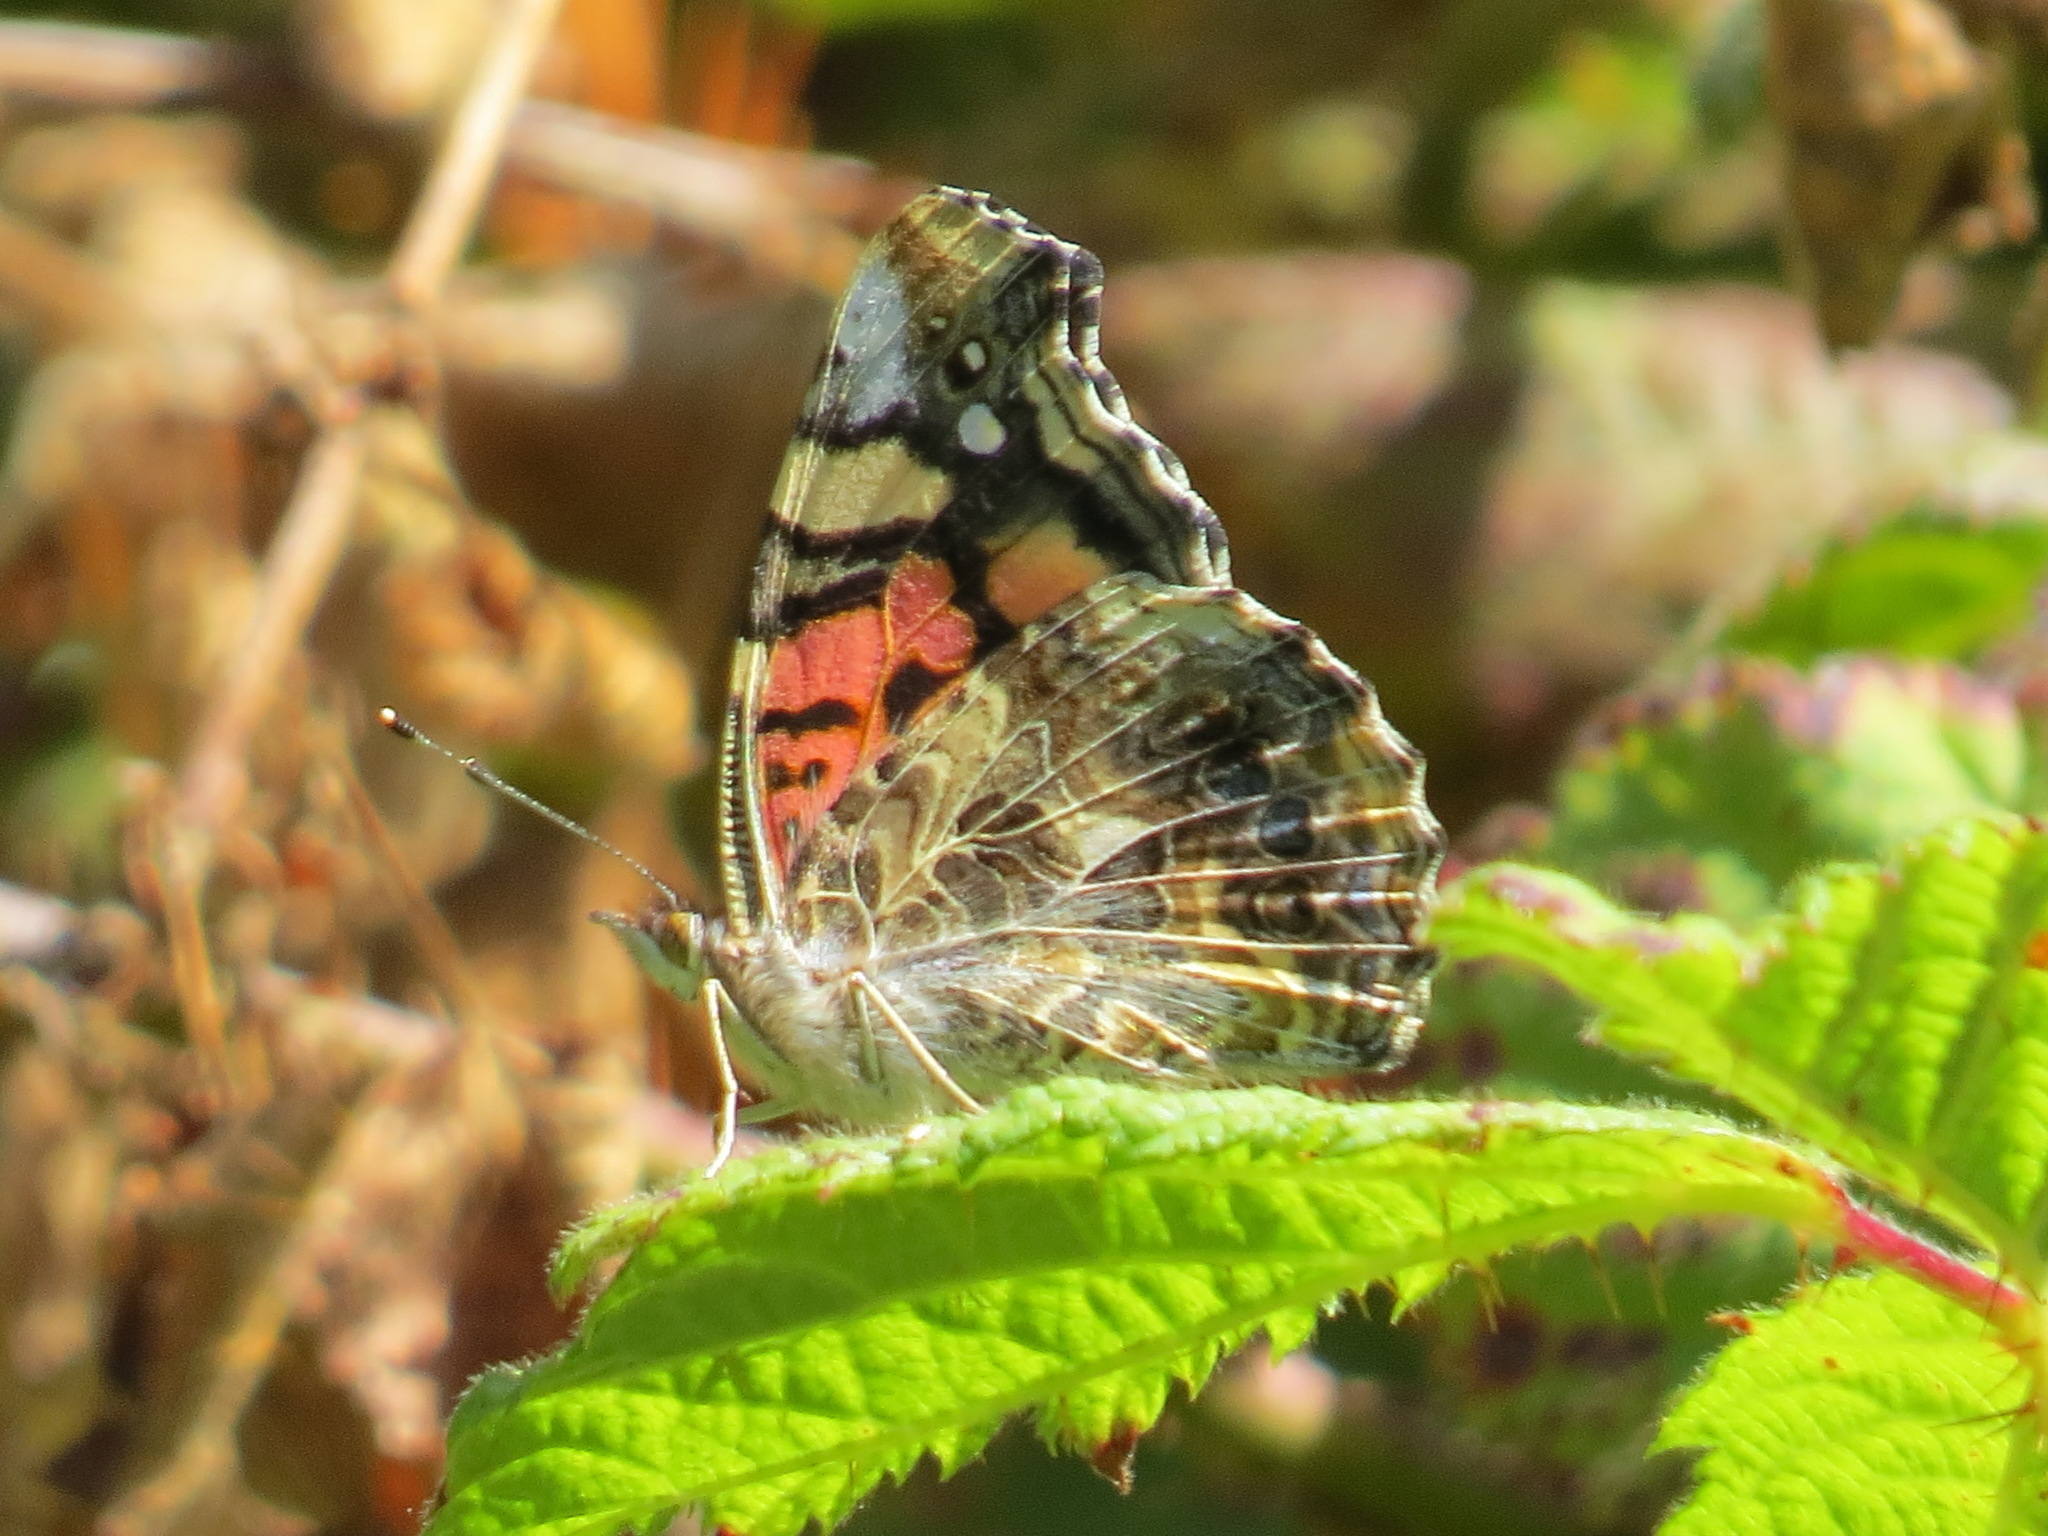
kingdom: Animalia
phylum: Arthropoda
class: Insecta
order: Lepidoptera
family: Nymphalidae
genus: Vanessa
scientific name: Vanessa annabella
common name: West coast lady
